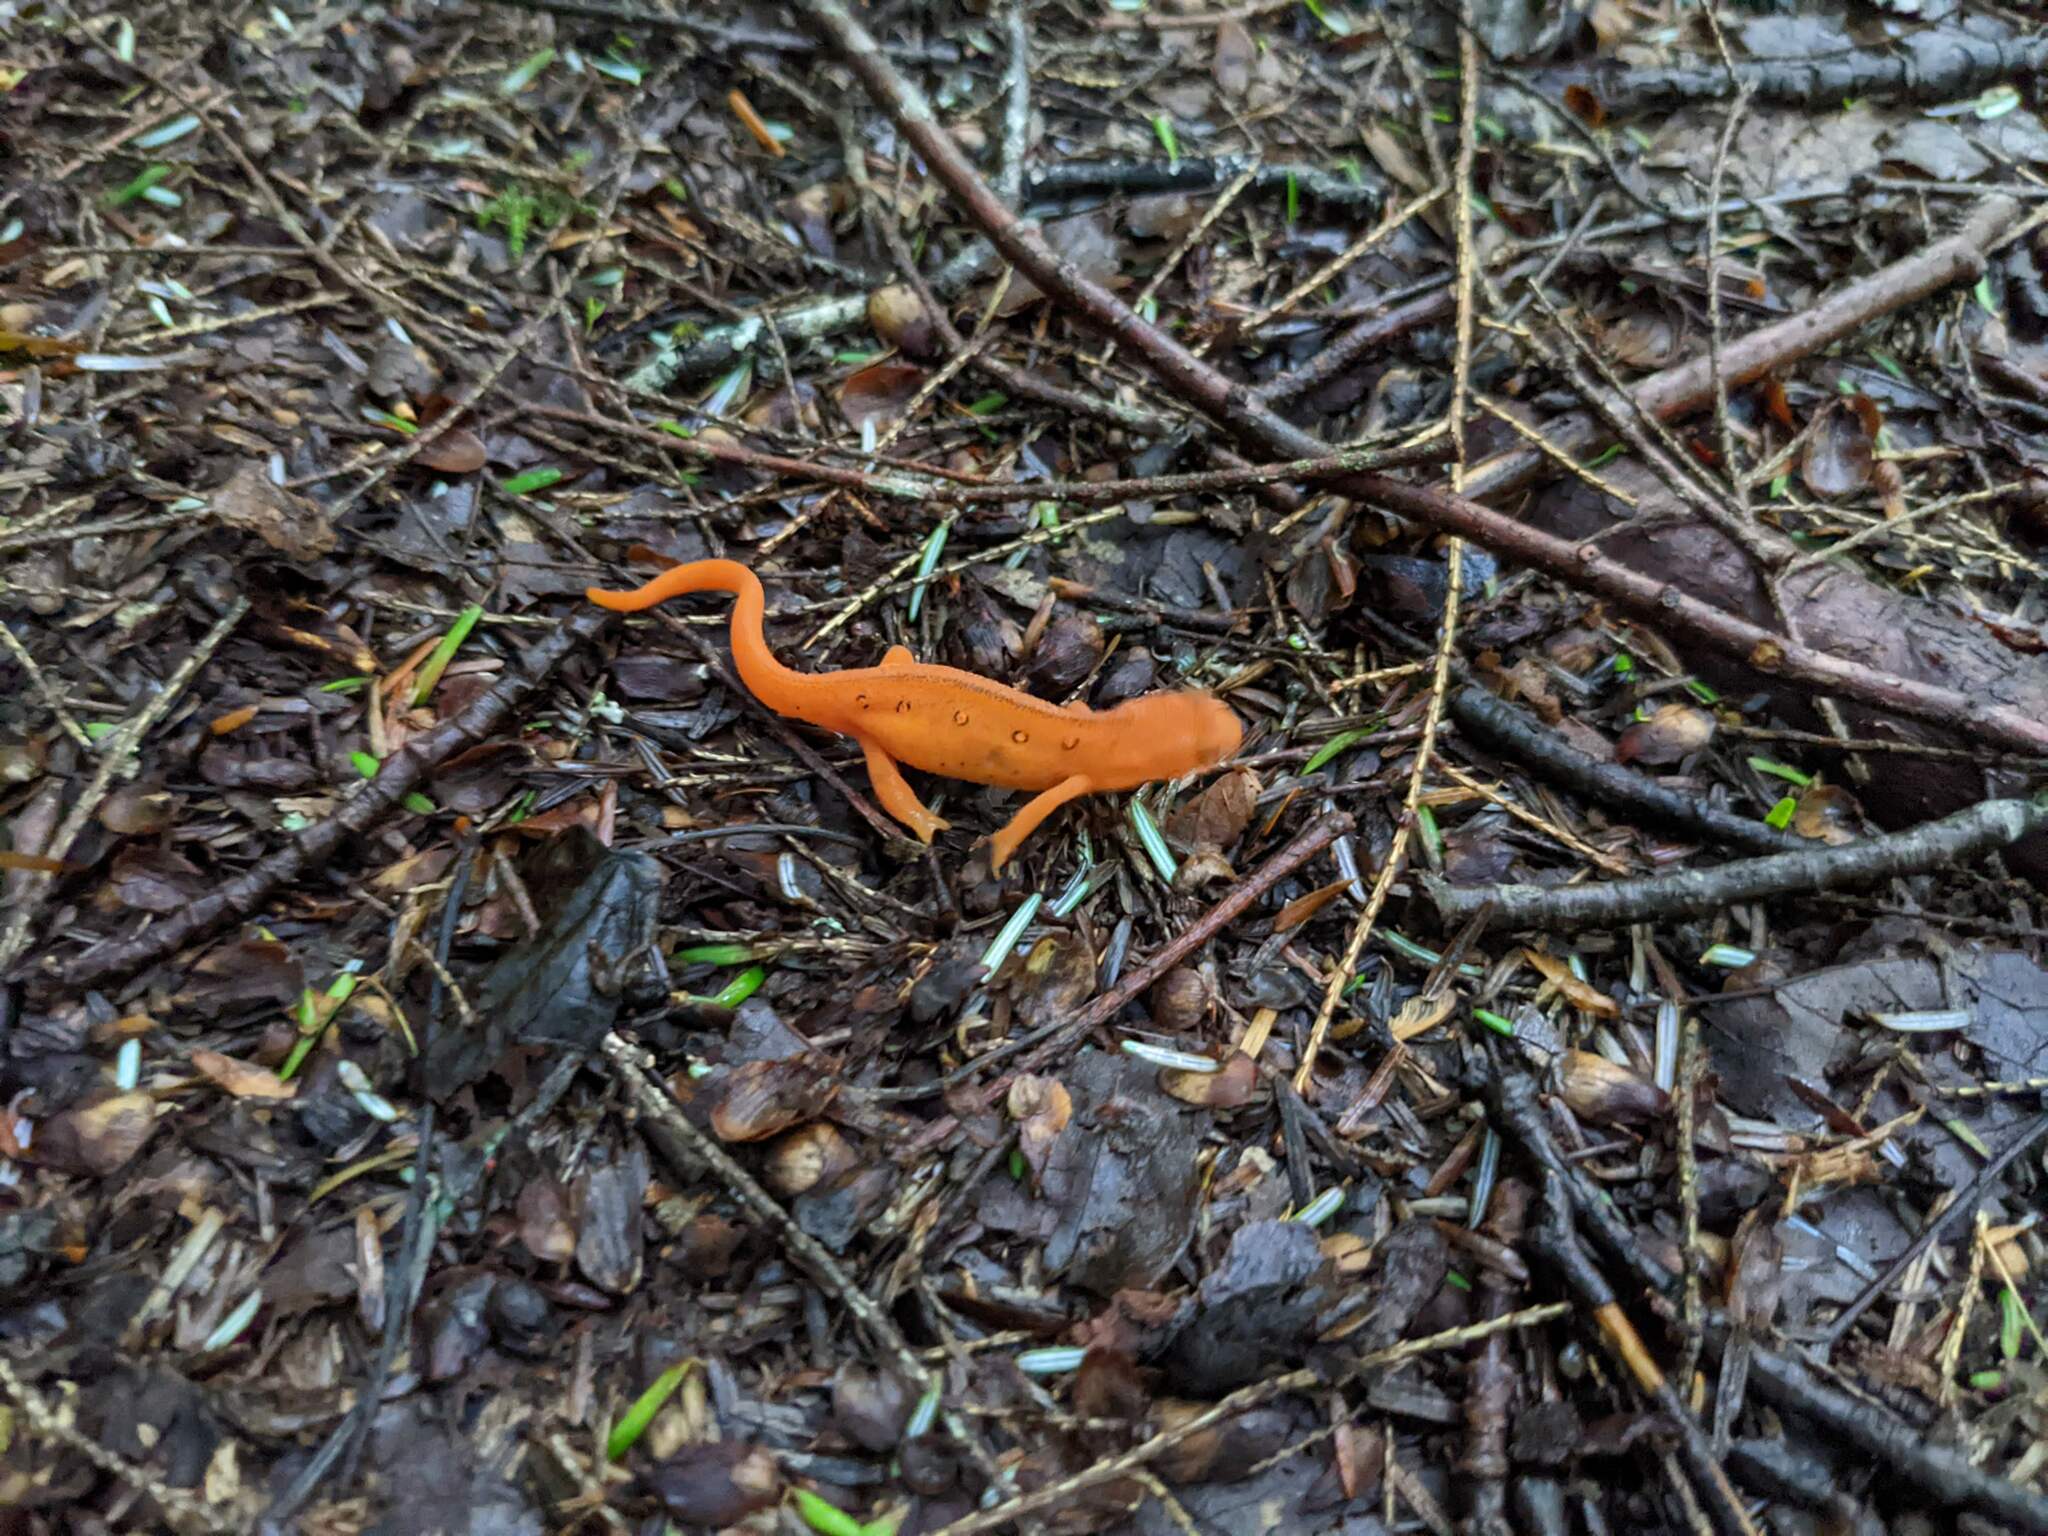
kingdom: Animalia
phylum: Chordata
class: Amphibia
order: Caudata
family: Salamandridae
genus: Notophthalmus
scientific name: Notophthalmus viridescens
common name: Eastern newt
